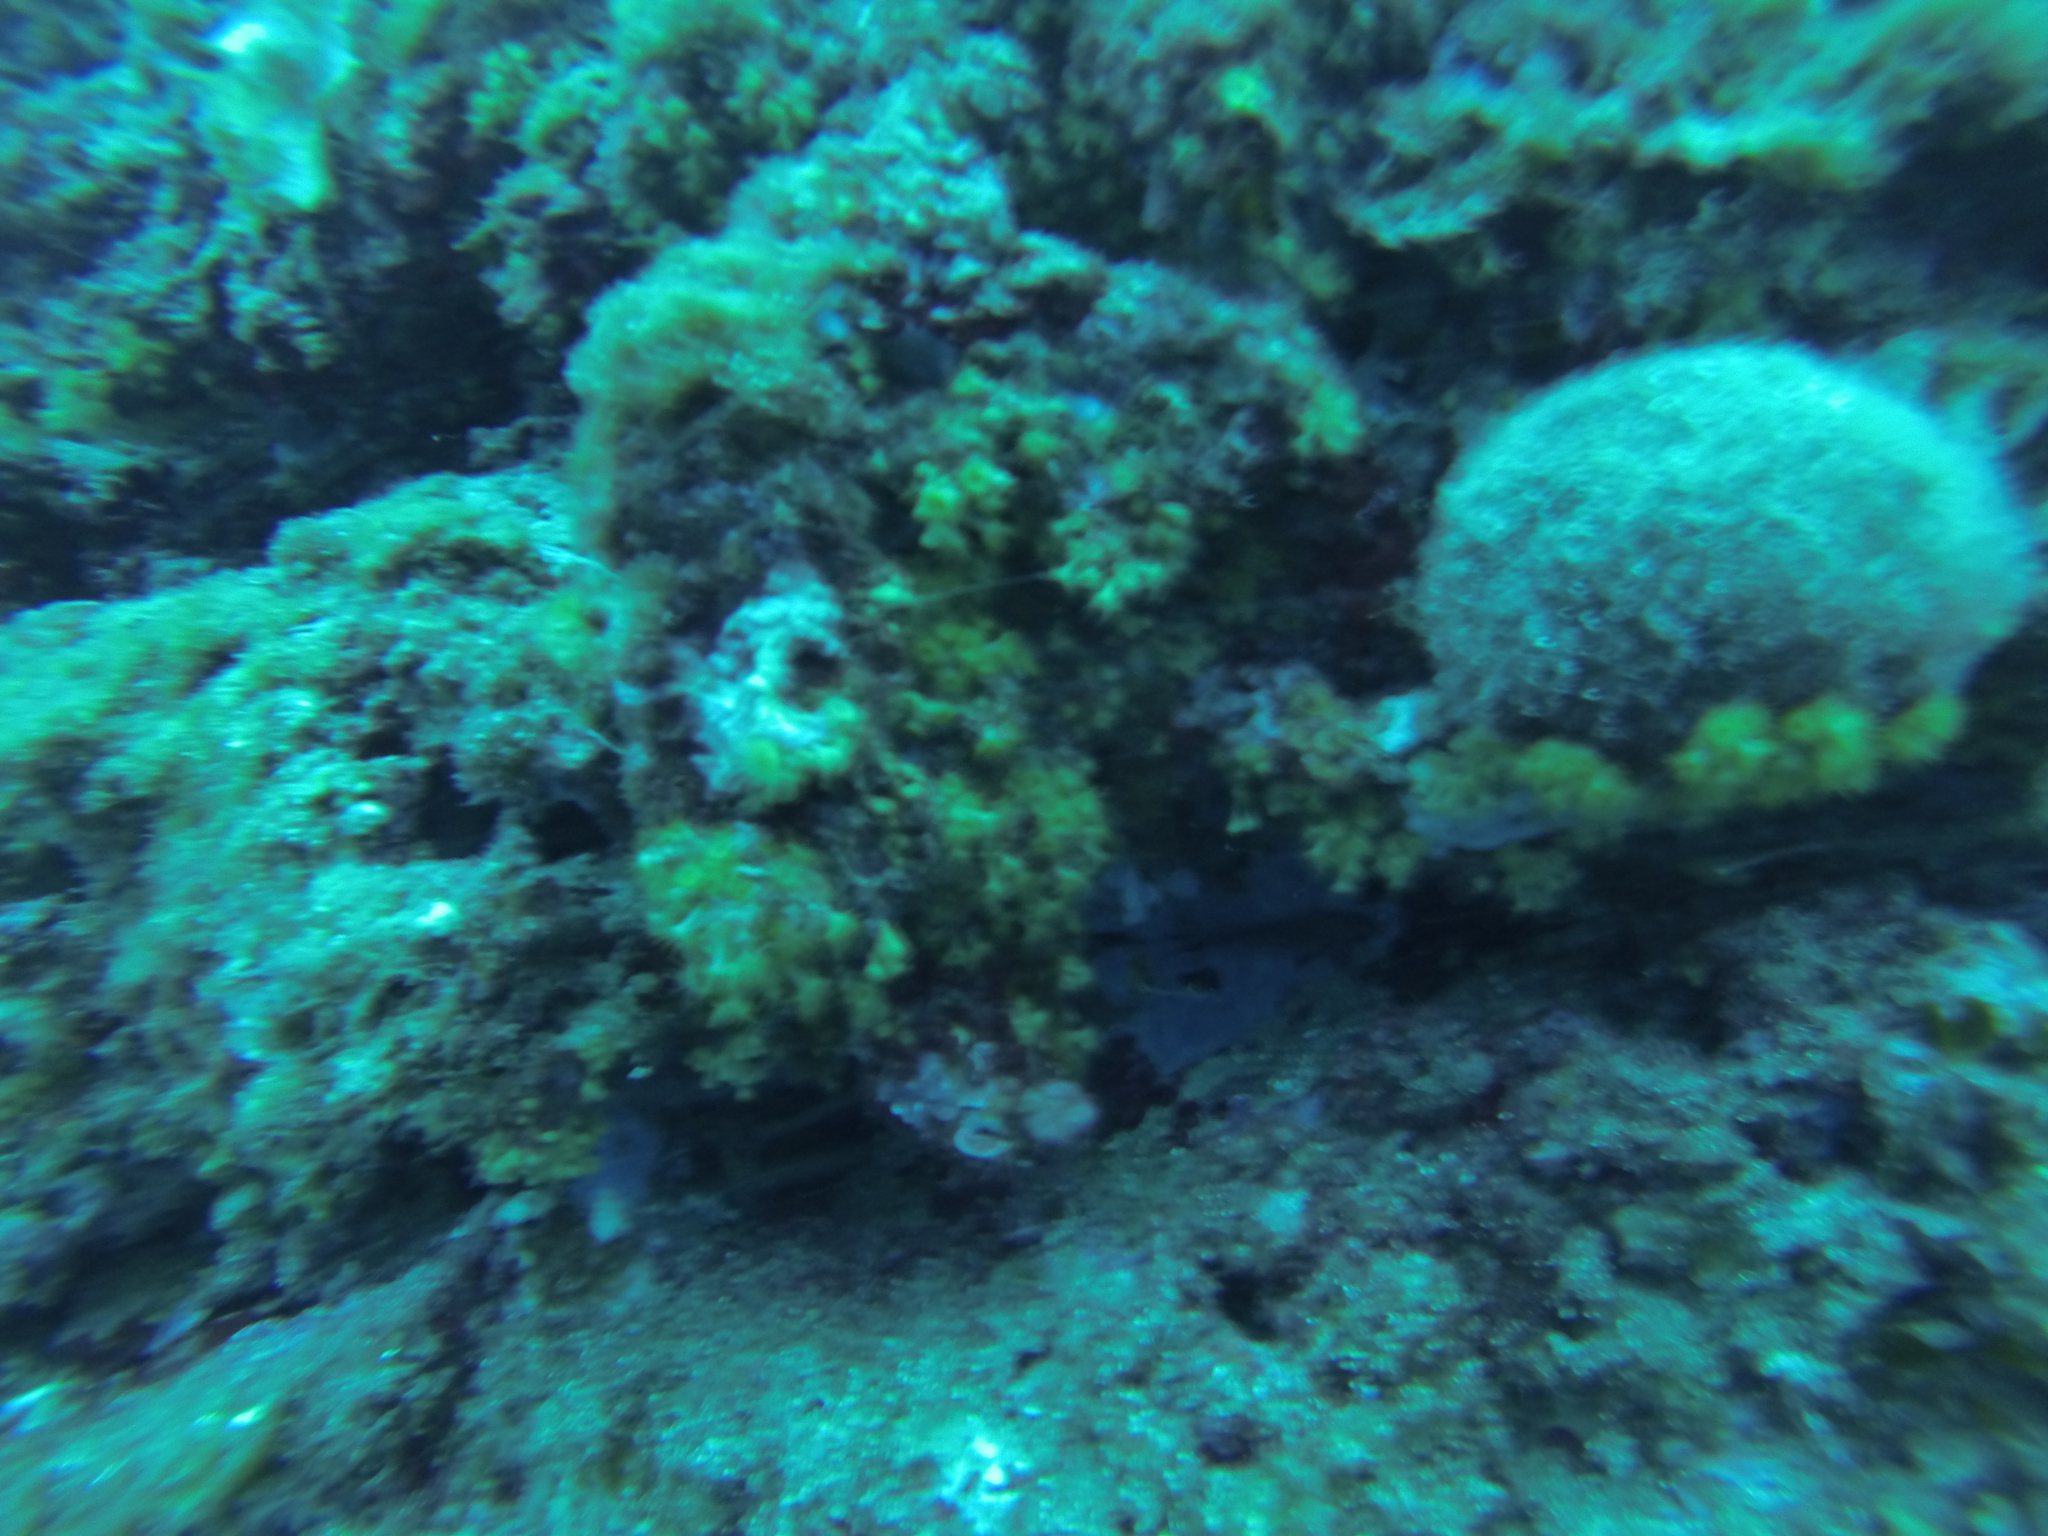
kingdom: Animalia
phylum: Cnidaria
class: Anthozoa
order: Zoantharia
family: Parazoanthidae
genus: Parazoanthus
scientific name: Parazoanthus axinellae
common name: Yellow cluster anemone
